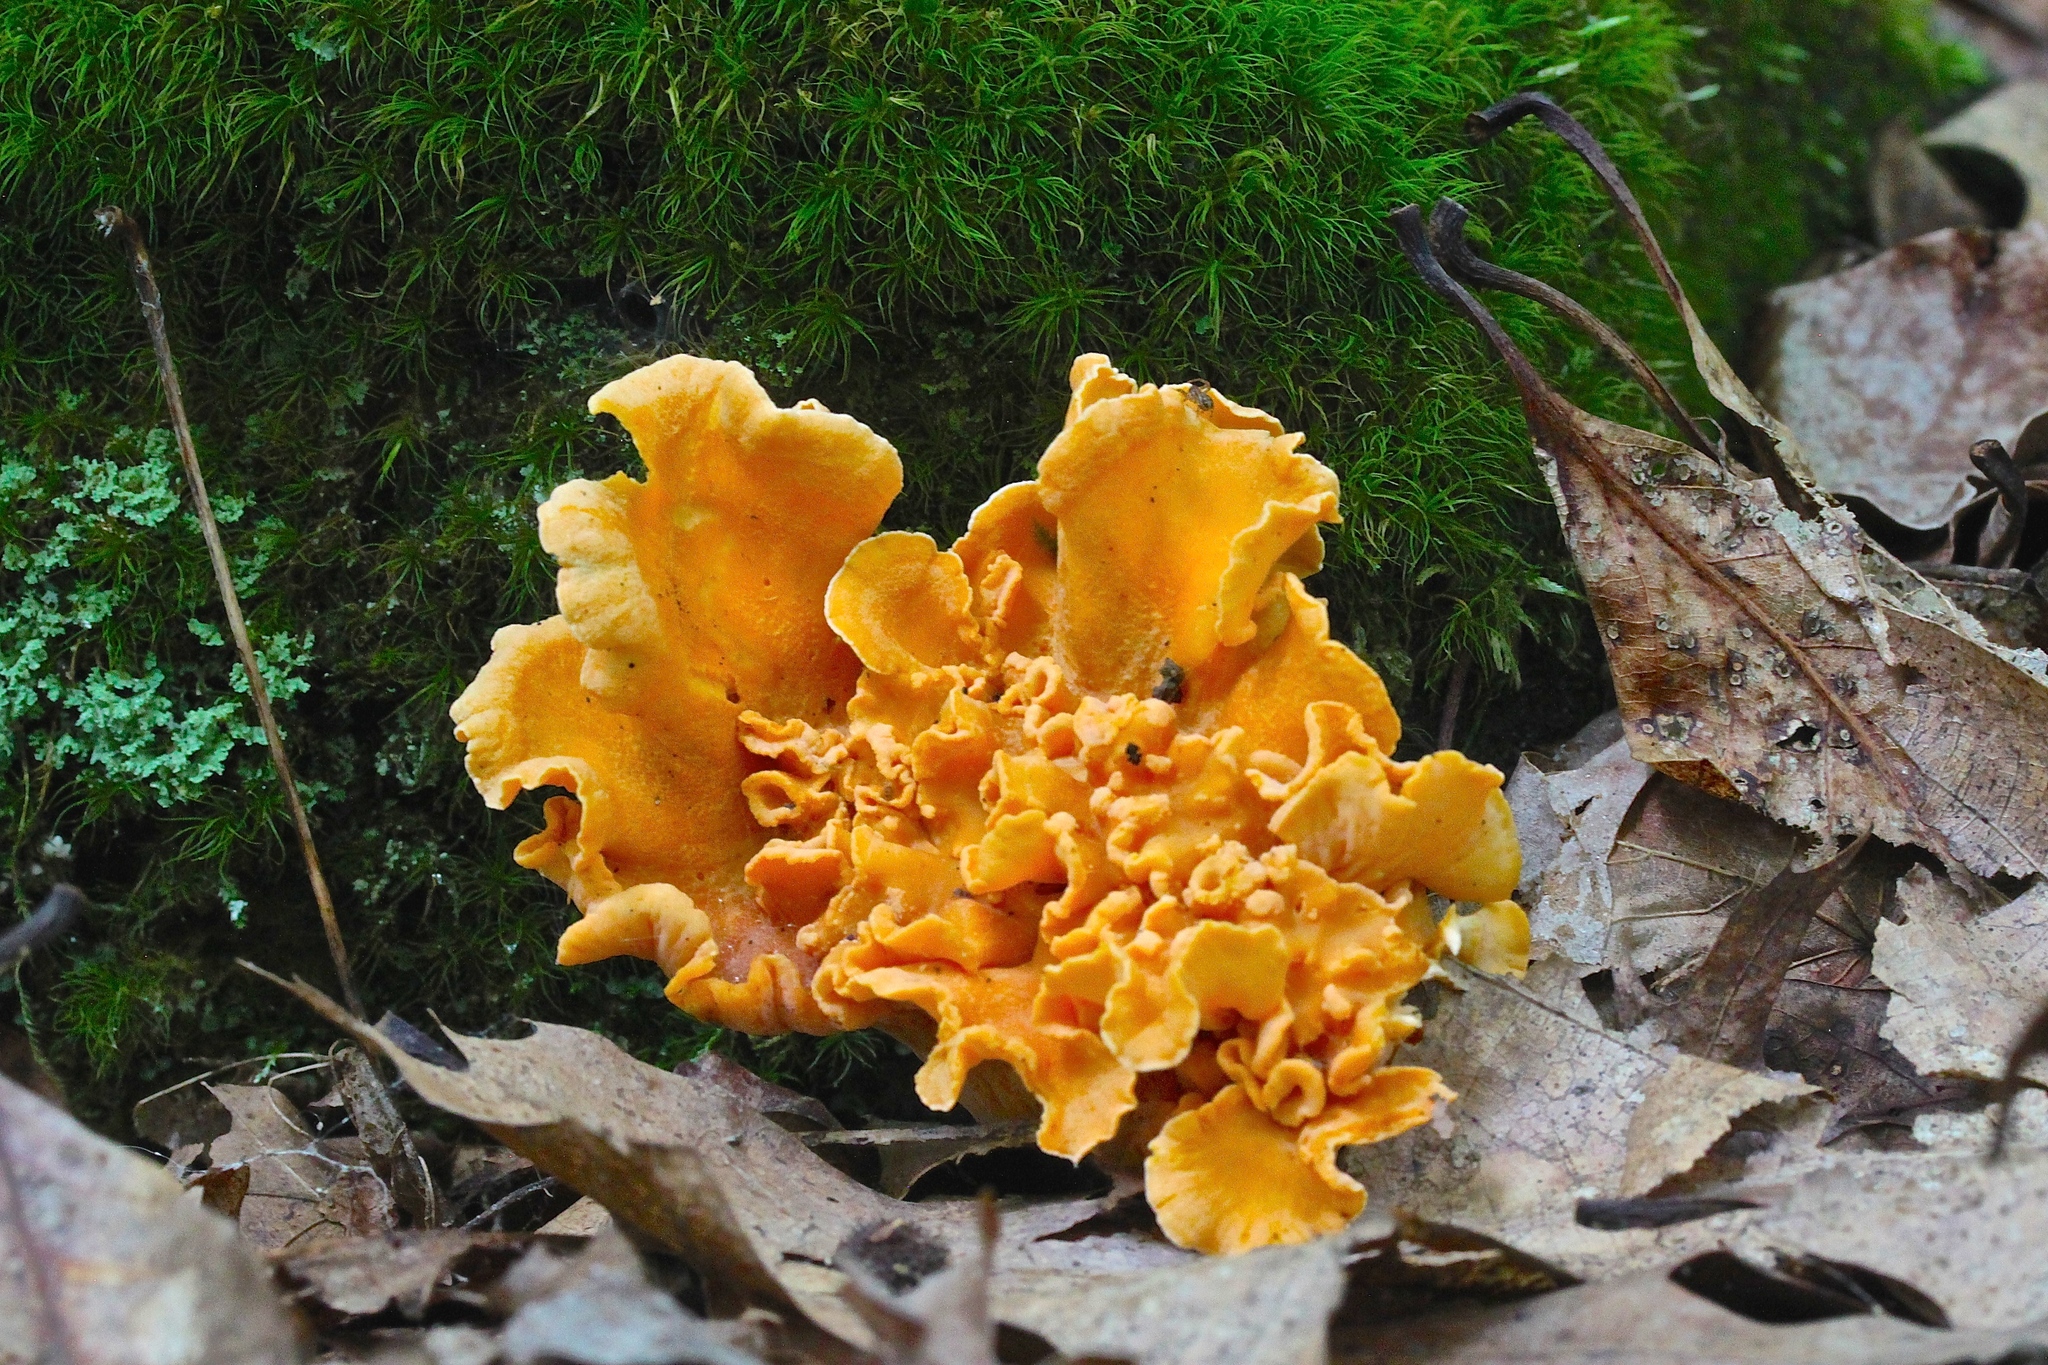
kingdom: Fungi
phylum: Basidiomycota
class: Agaricomycetes
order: Cantharellales
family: Hydnaceae
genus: Cantharellus
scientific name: Cantharellus lateritius
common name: Smooth chanterelle
